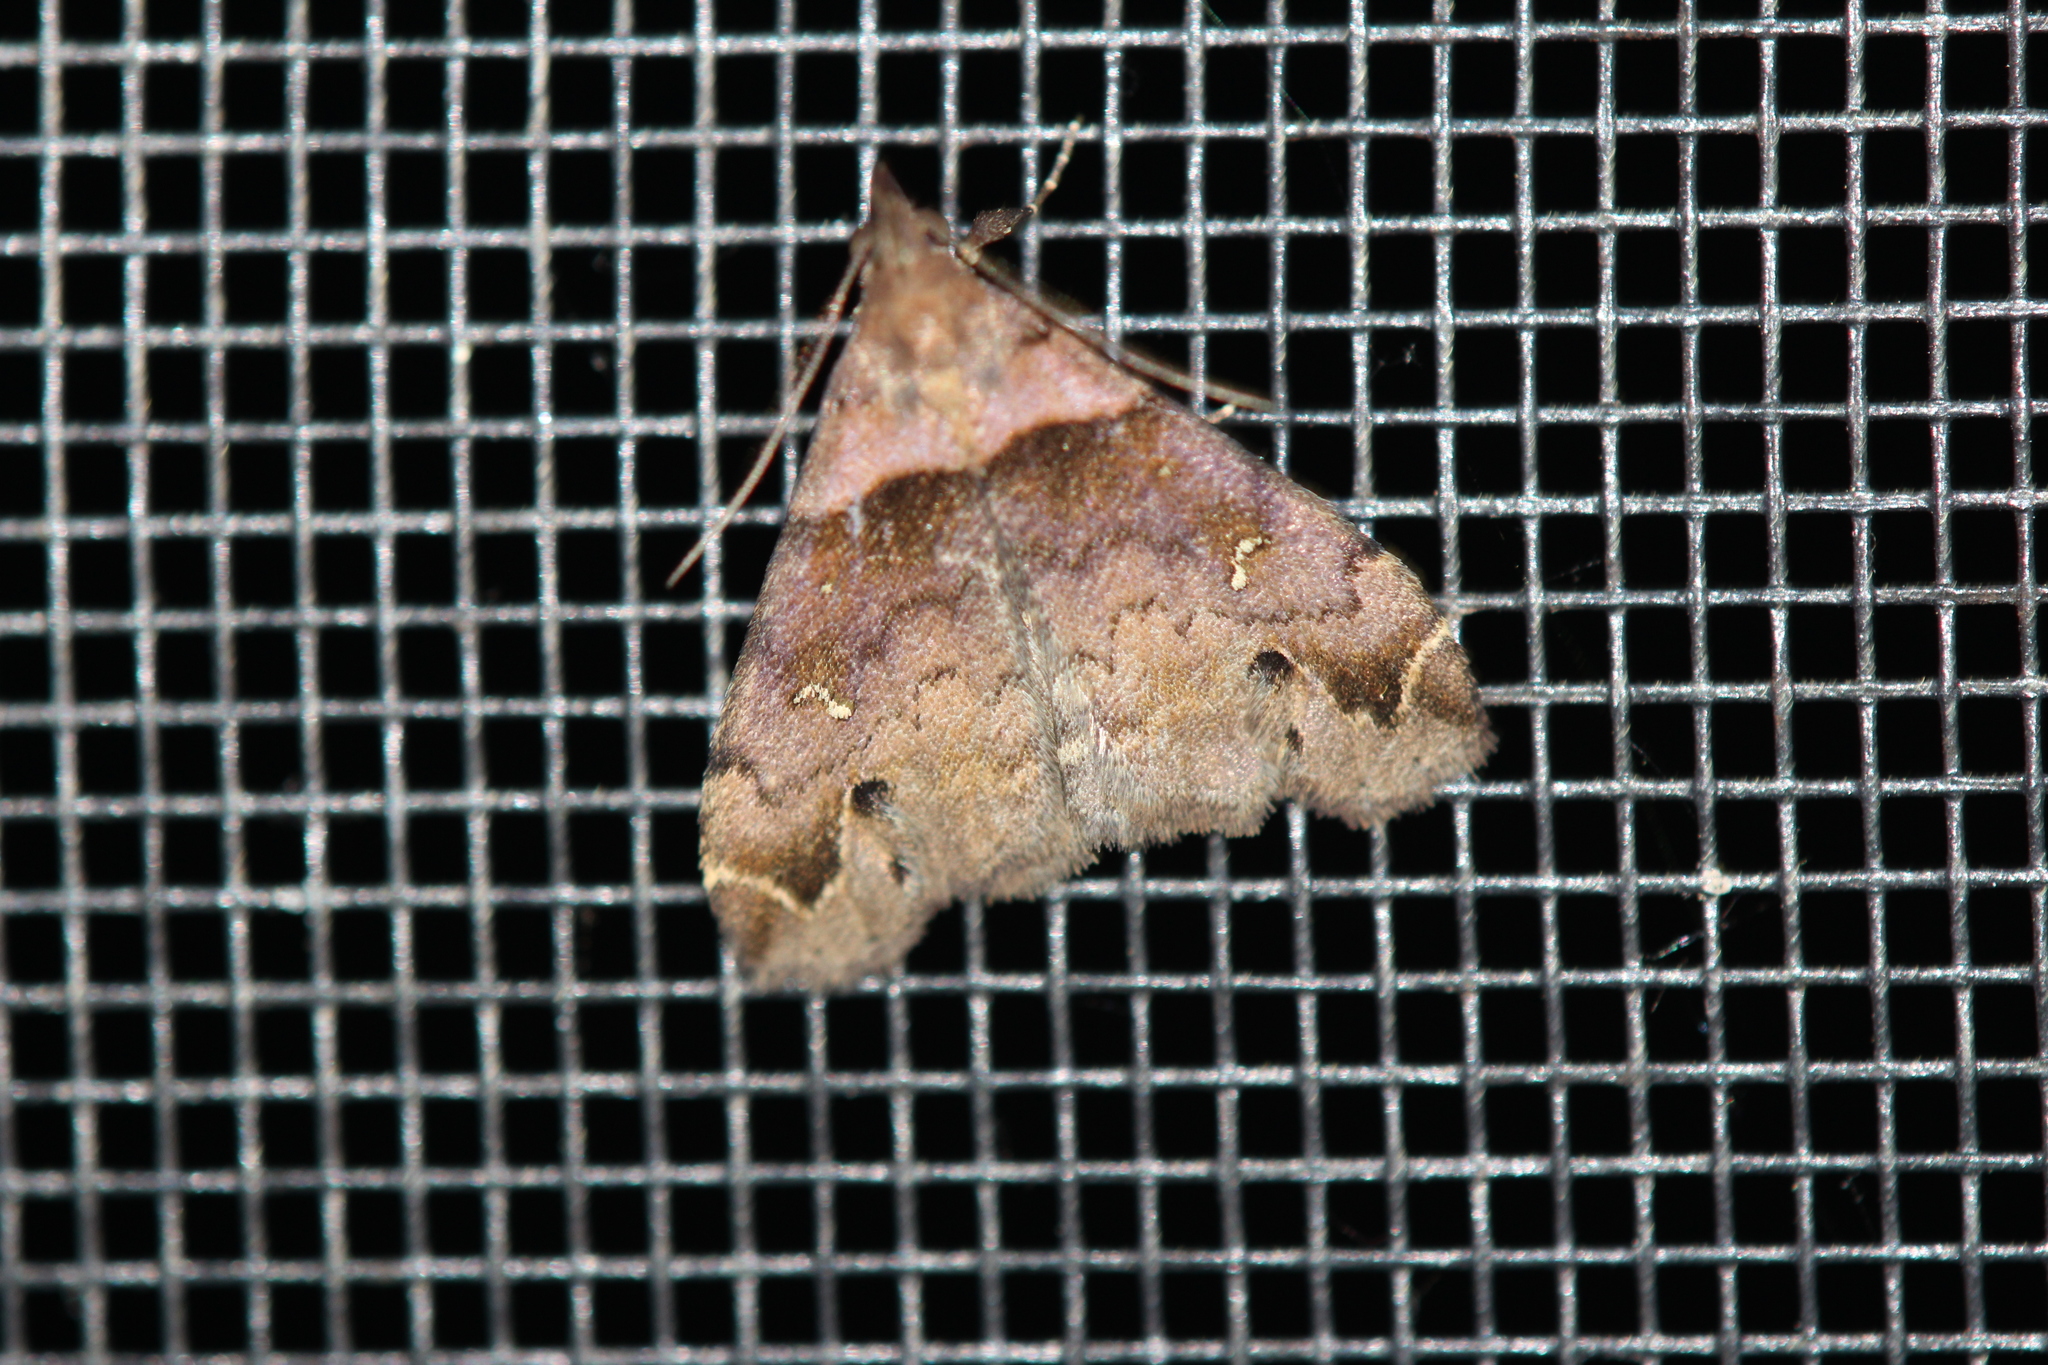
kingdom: Animalia
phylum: Arthropoda
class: Insecta
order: Lepidoptera
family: Erebidae
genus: Lascoria
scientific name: Lascoria ambigualis
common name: Ambiguous moth
